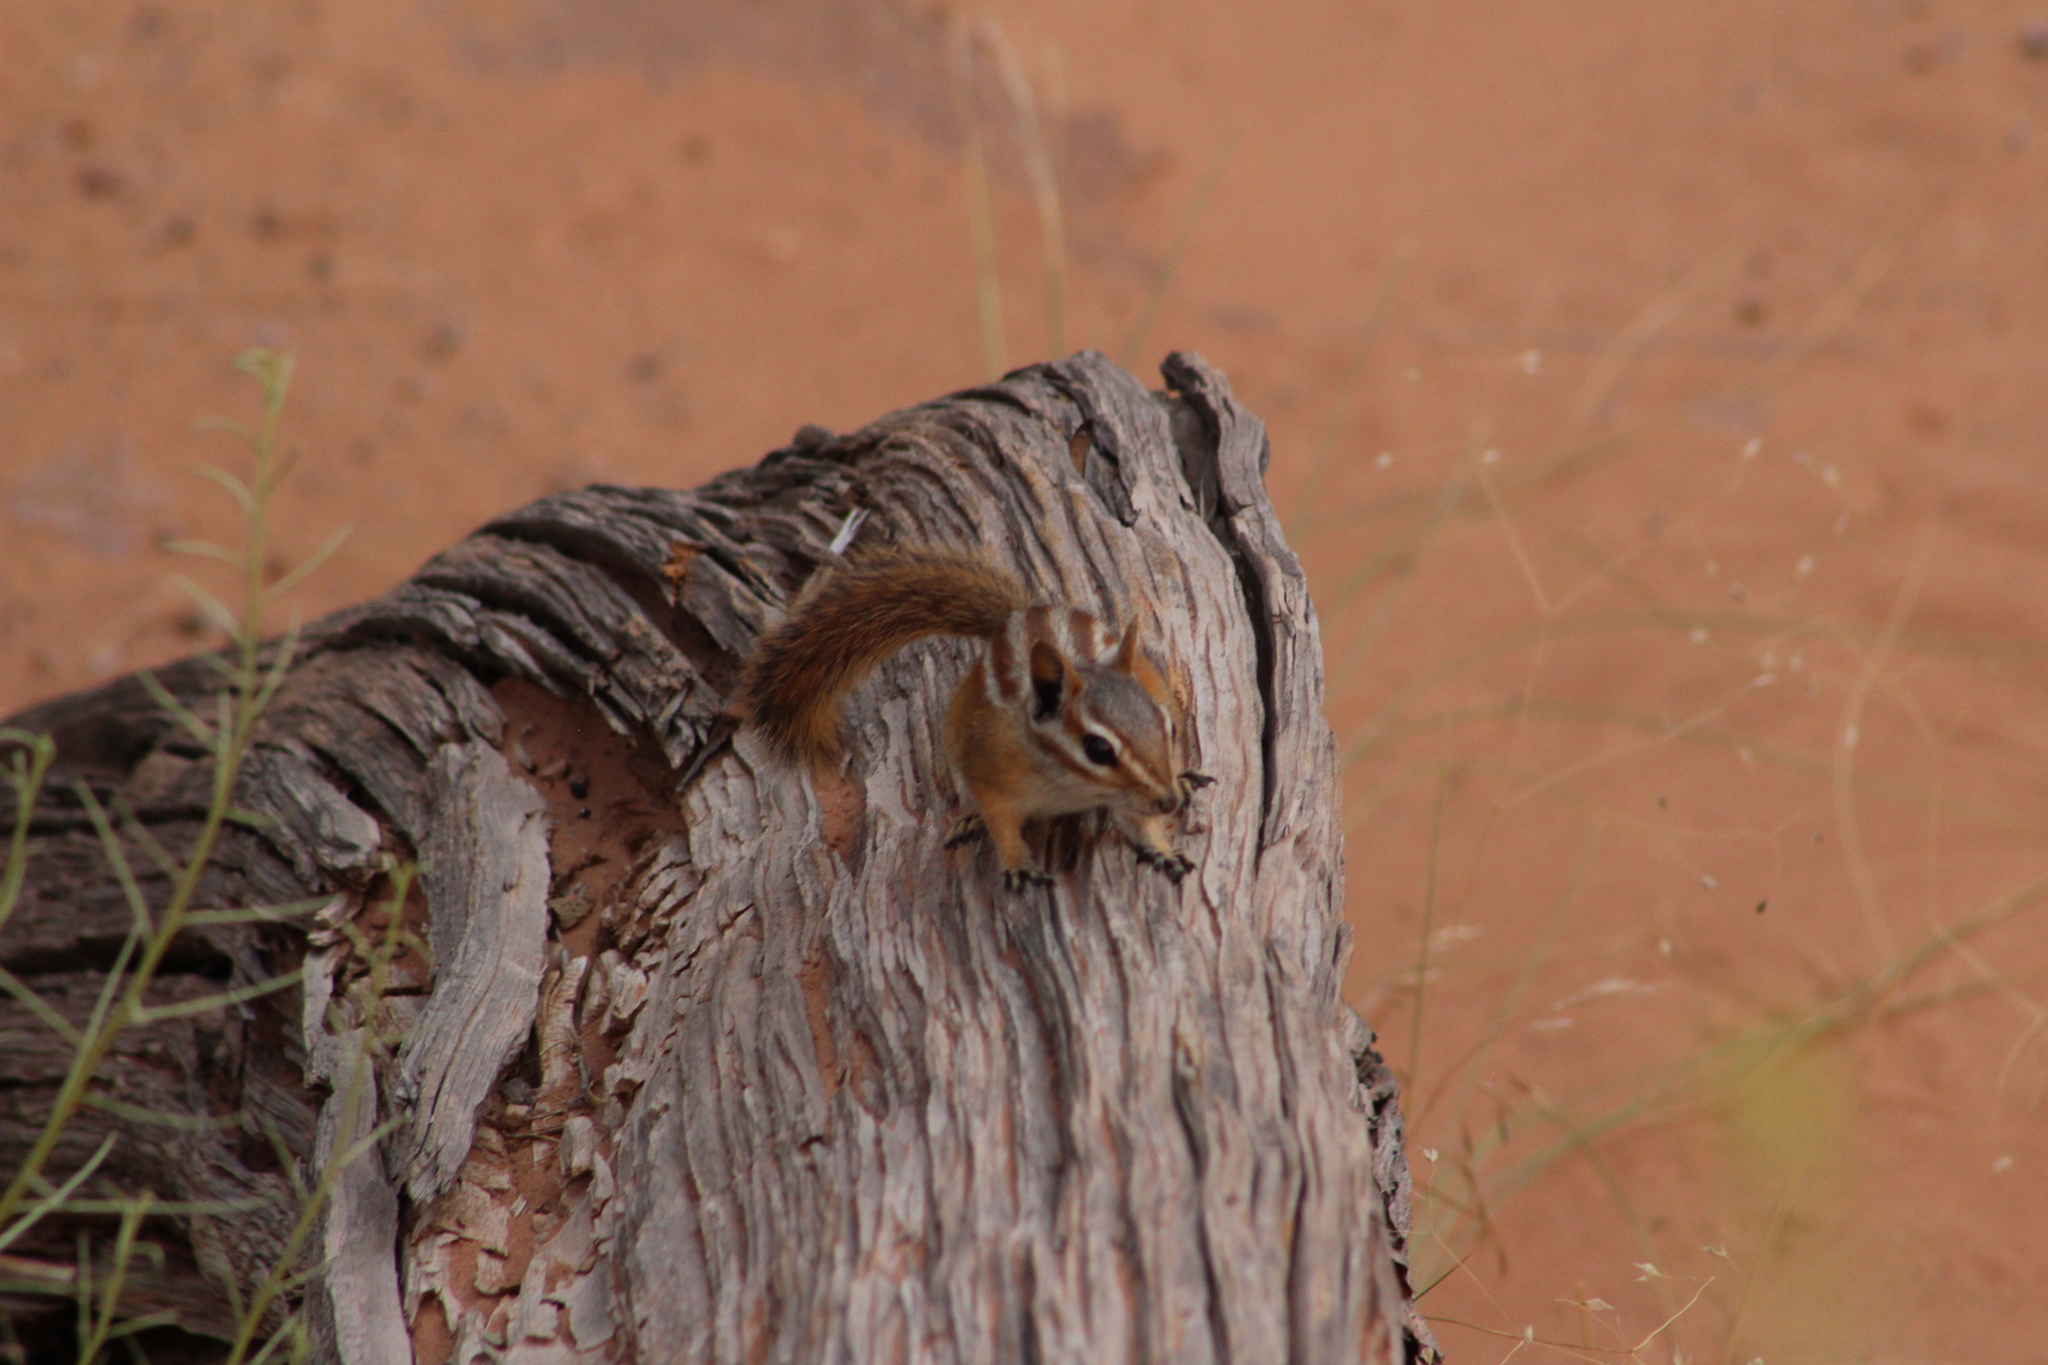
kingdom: Animalia
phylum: Chordata
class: Mammalia
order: Rodentia
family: Sciuridae
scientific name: Sciuridae
